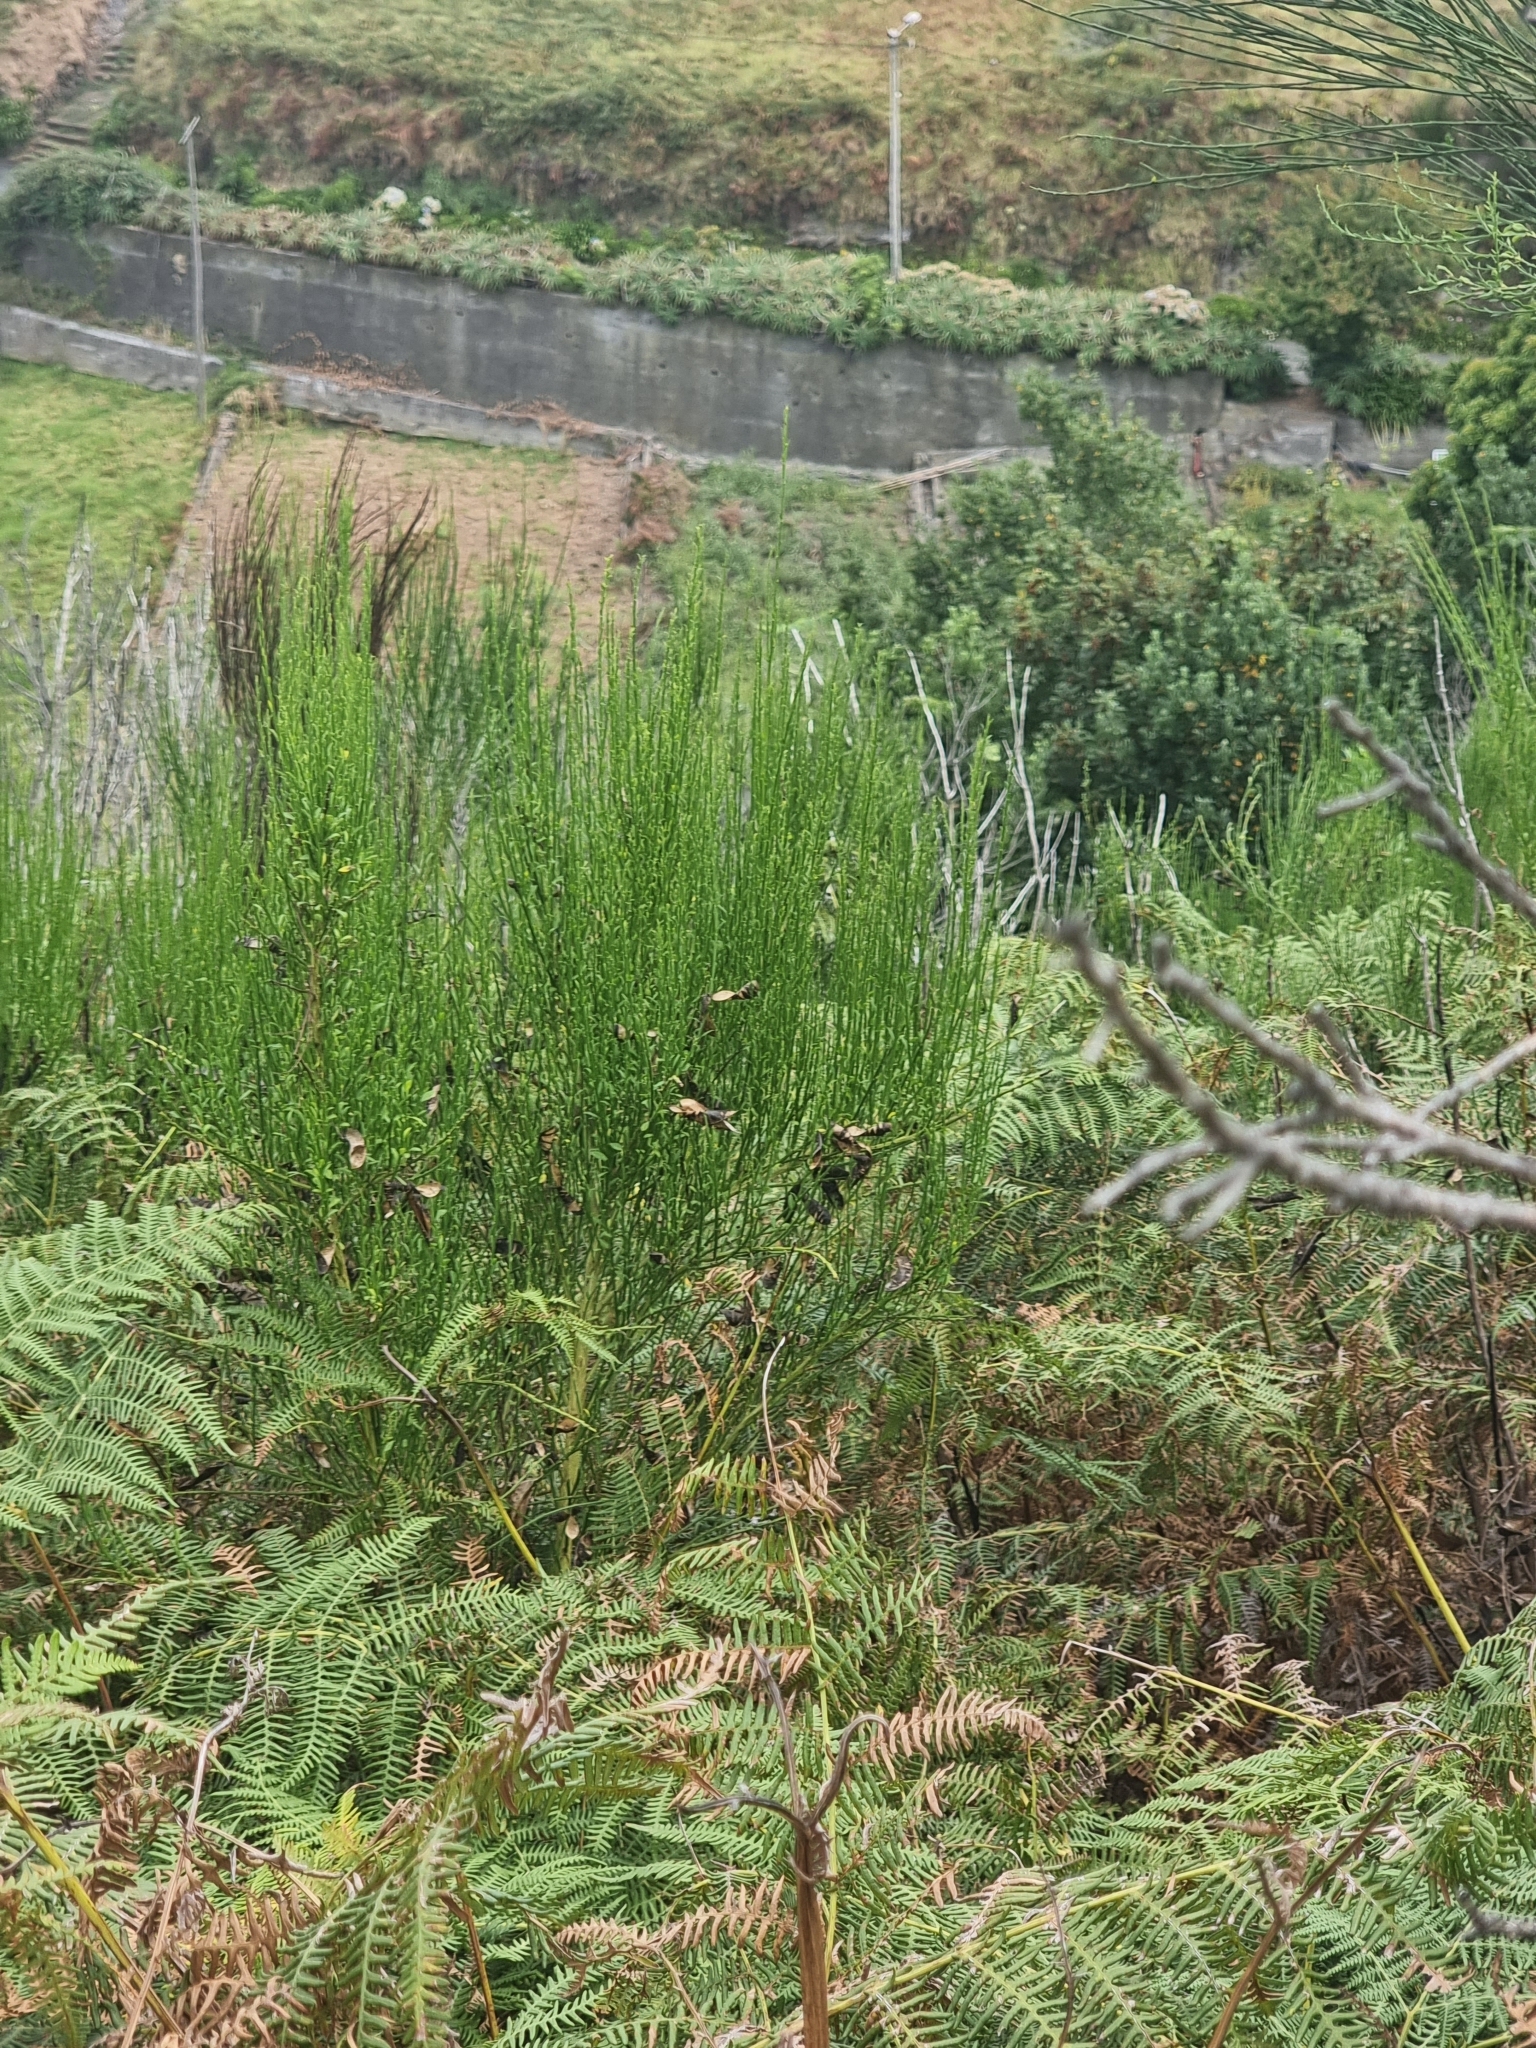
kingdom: Plantae
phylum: Tracheophyta
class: Magnoliopsida
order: Fabales
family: Fabaceae
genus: Cytisus
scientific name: Cytisus scoparius
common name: Scotch broom
